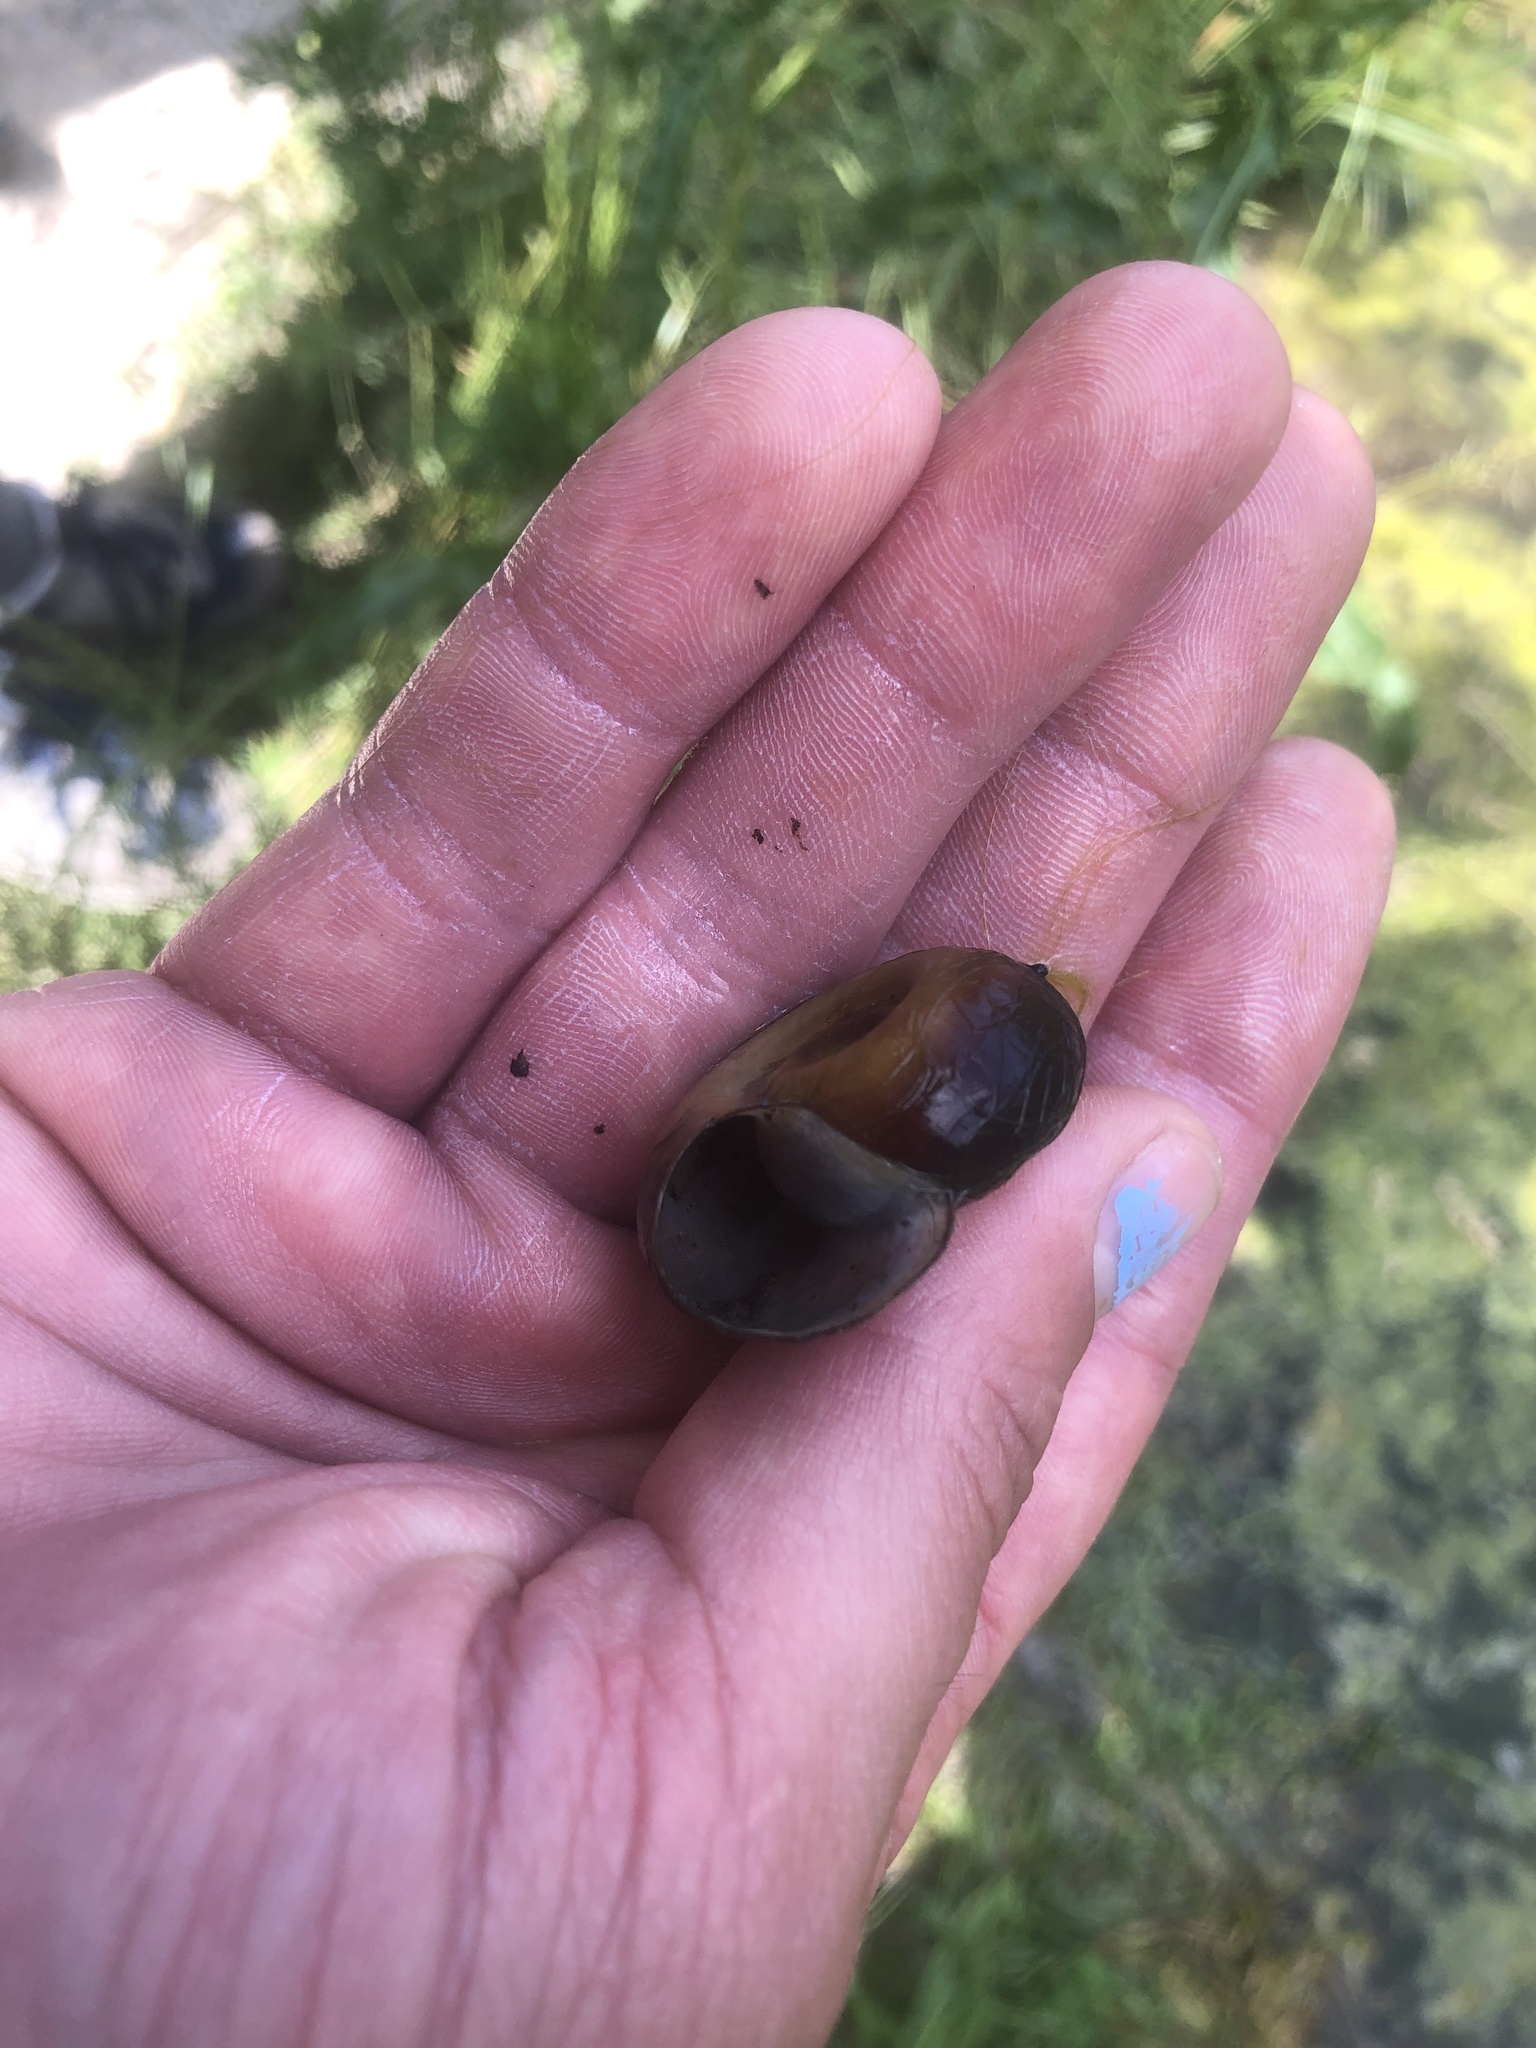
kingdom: Animalia
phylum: Mollusca
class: Gastropoda
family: Planorbidae
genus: Planorbarius
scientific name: Planorbarius corneus
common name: Great ramshorn
